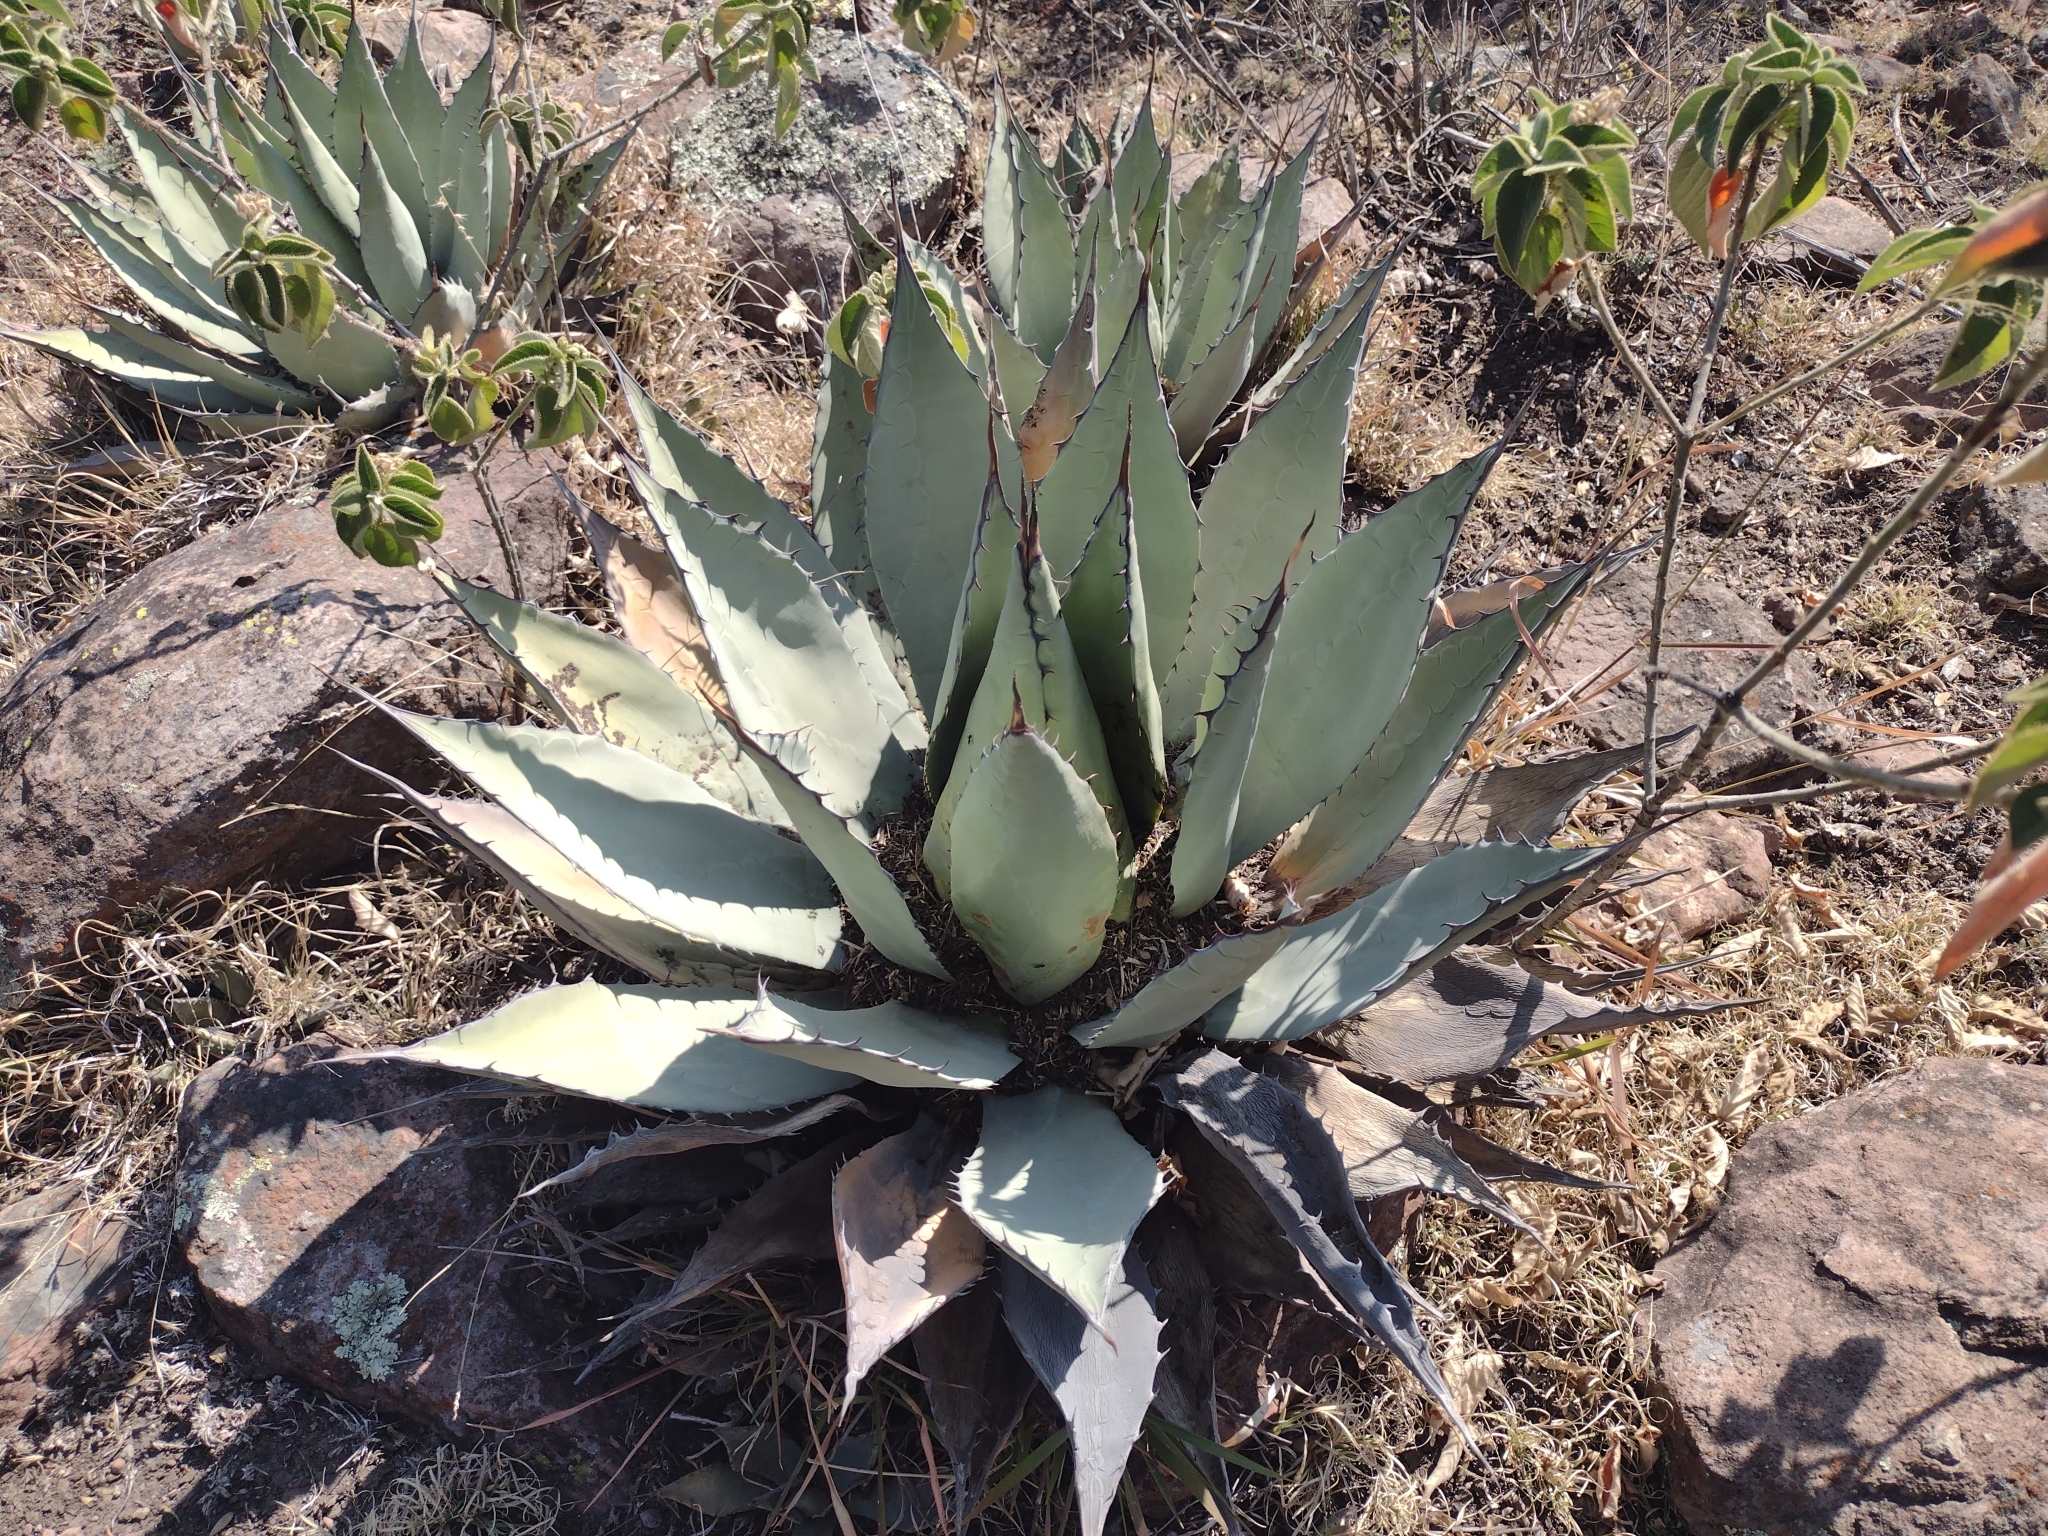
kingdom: Plantae
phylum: Tracheophyta
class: Liliopsida
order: Asparagales
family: Asparagaceae
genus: Agave
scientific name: Agave flexispina
